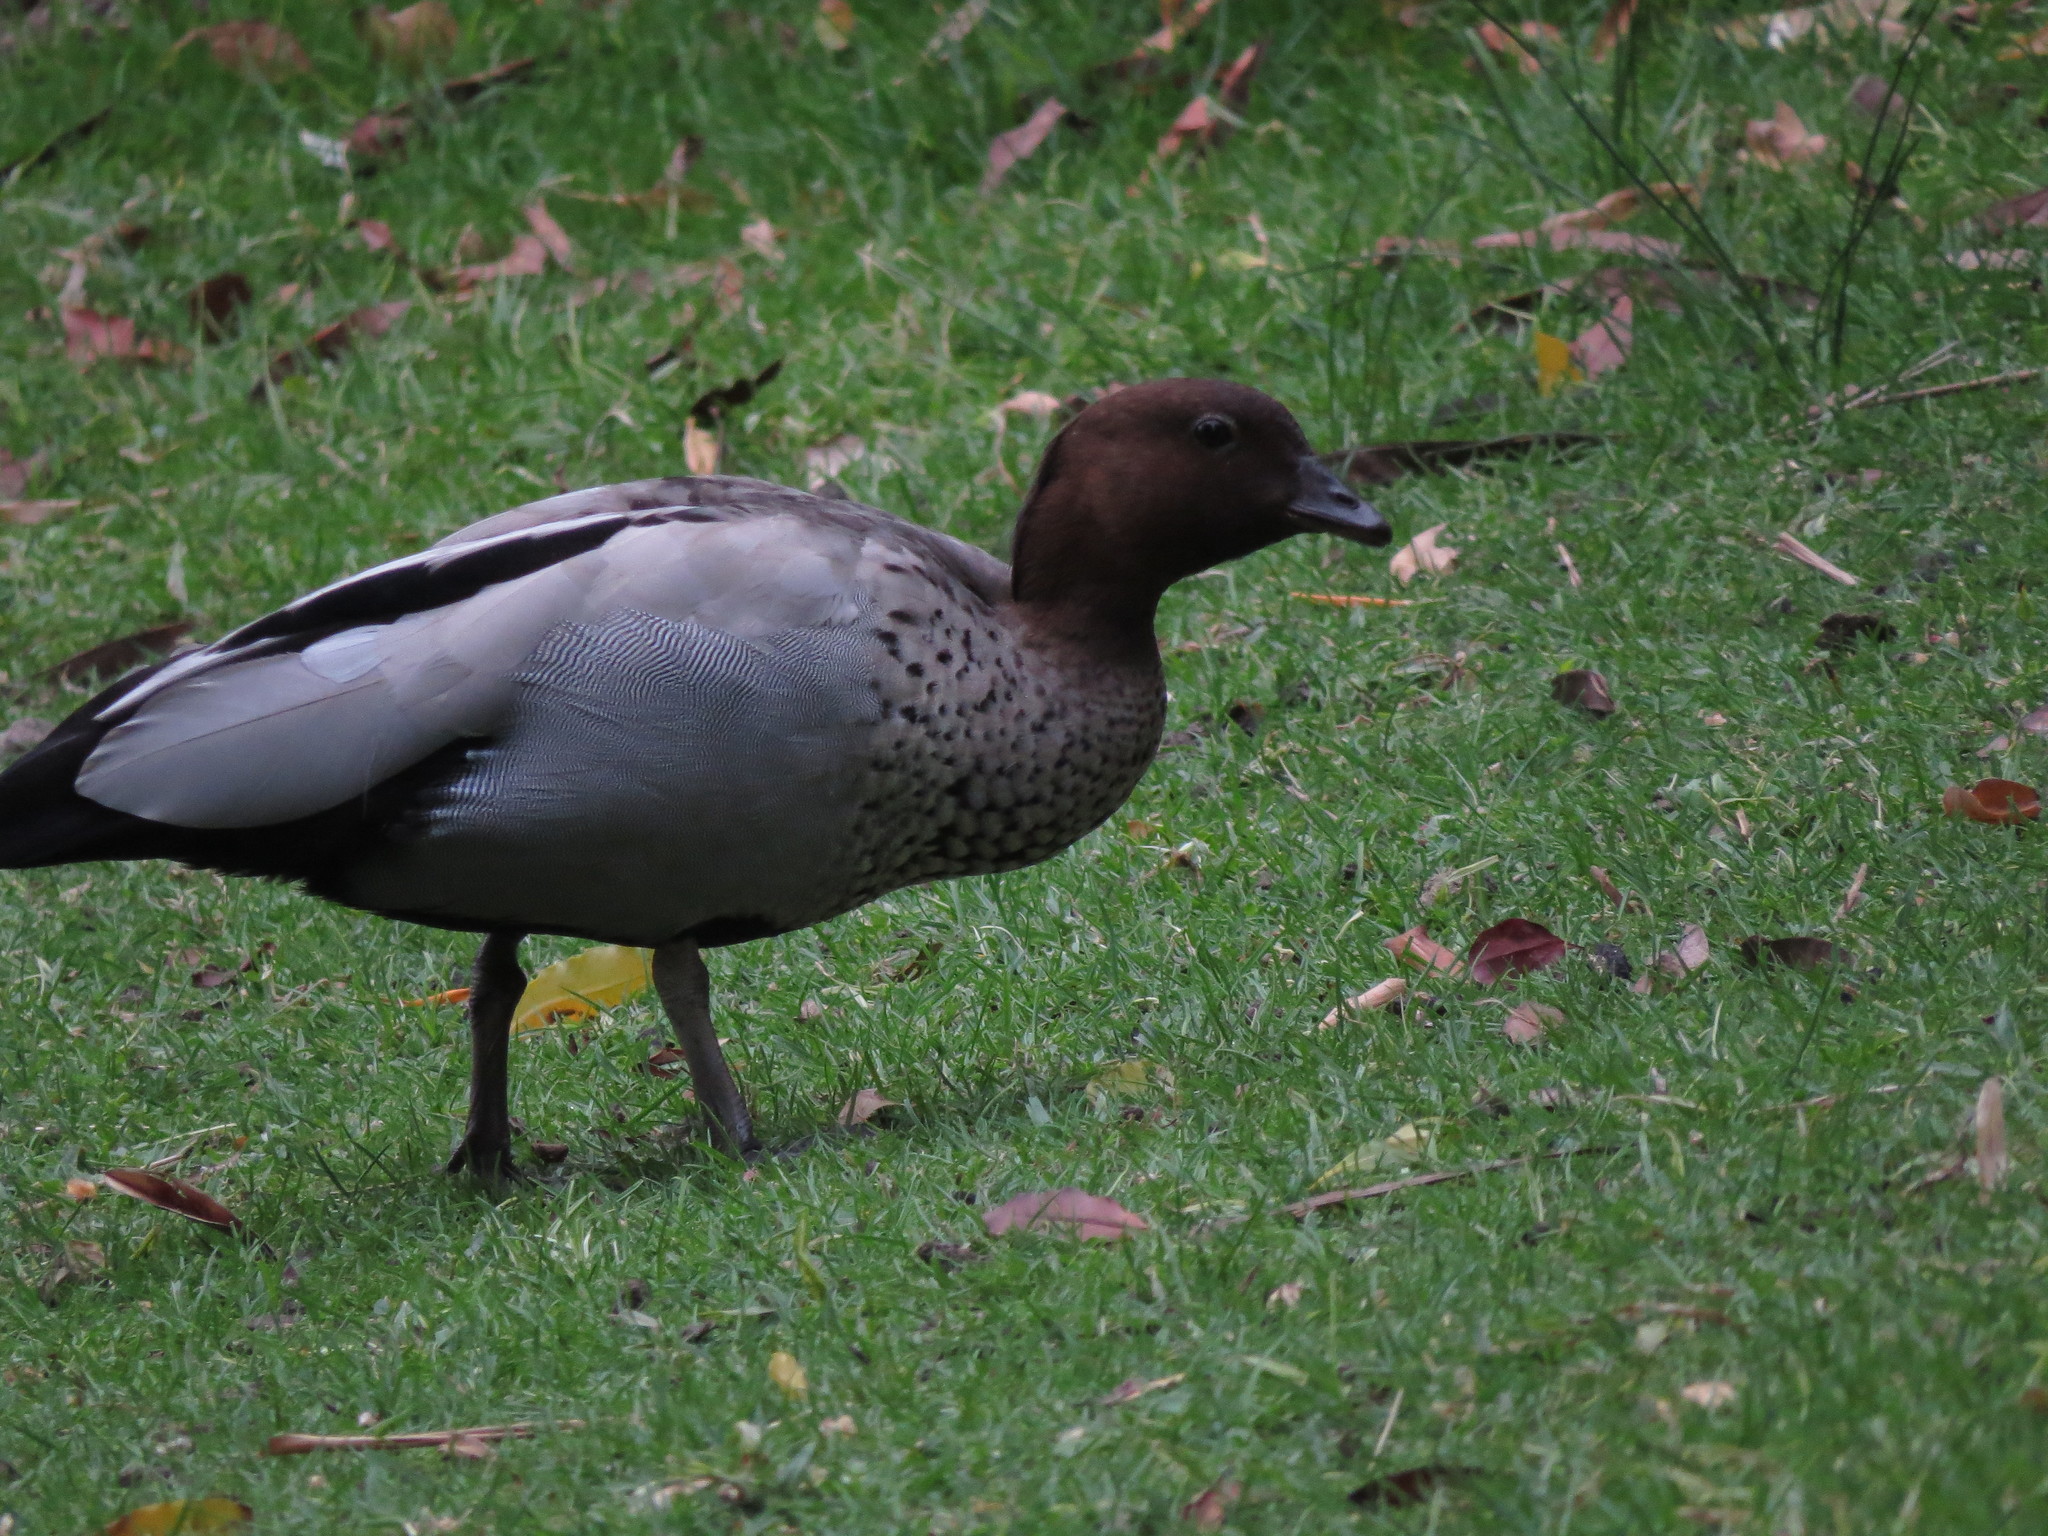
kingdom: Animalia
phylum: Chordata
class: Aves
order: Anseriformes
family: Anatidae
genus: Chenonetta
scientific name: Chenonetta jubata
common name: Maned duck
